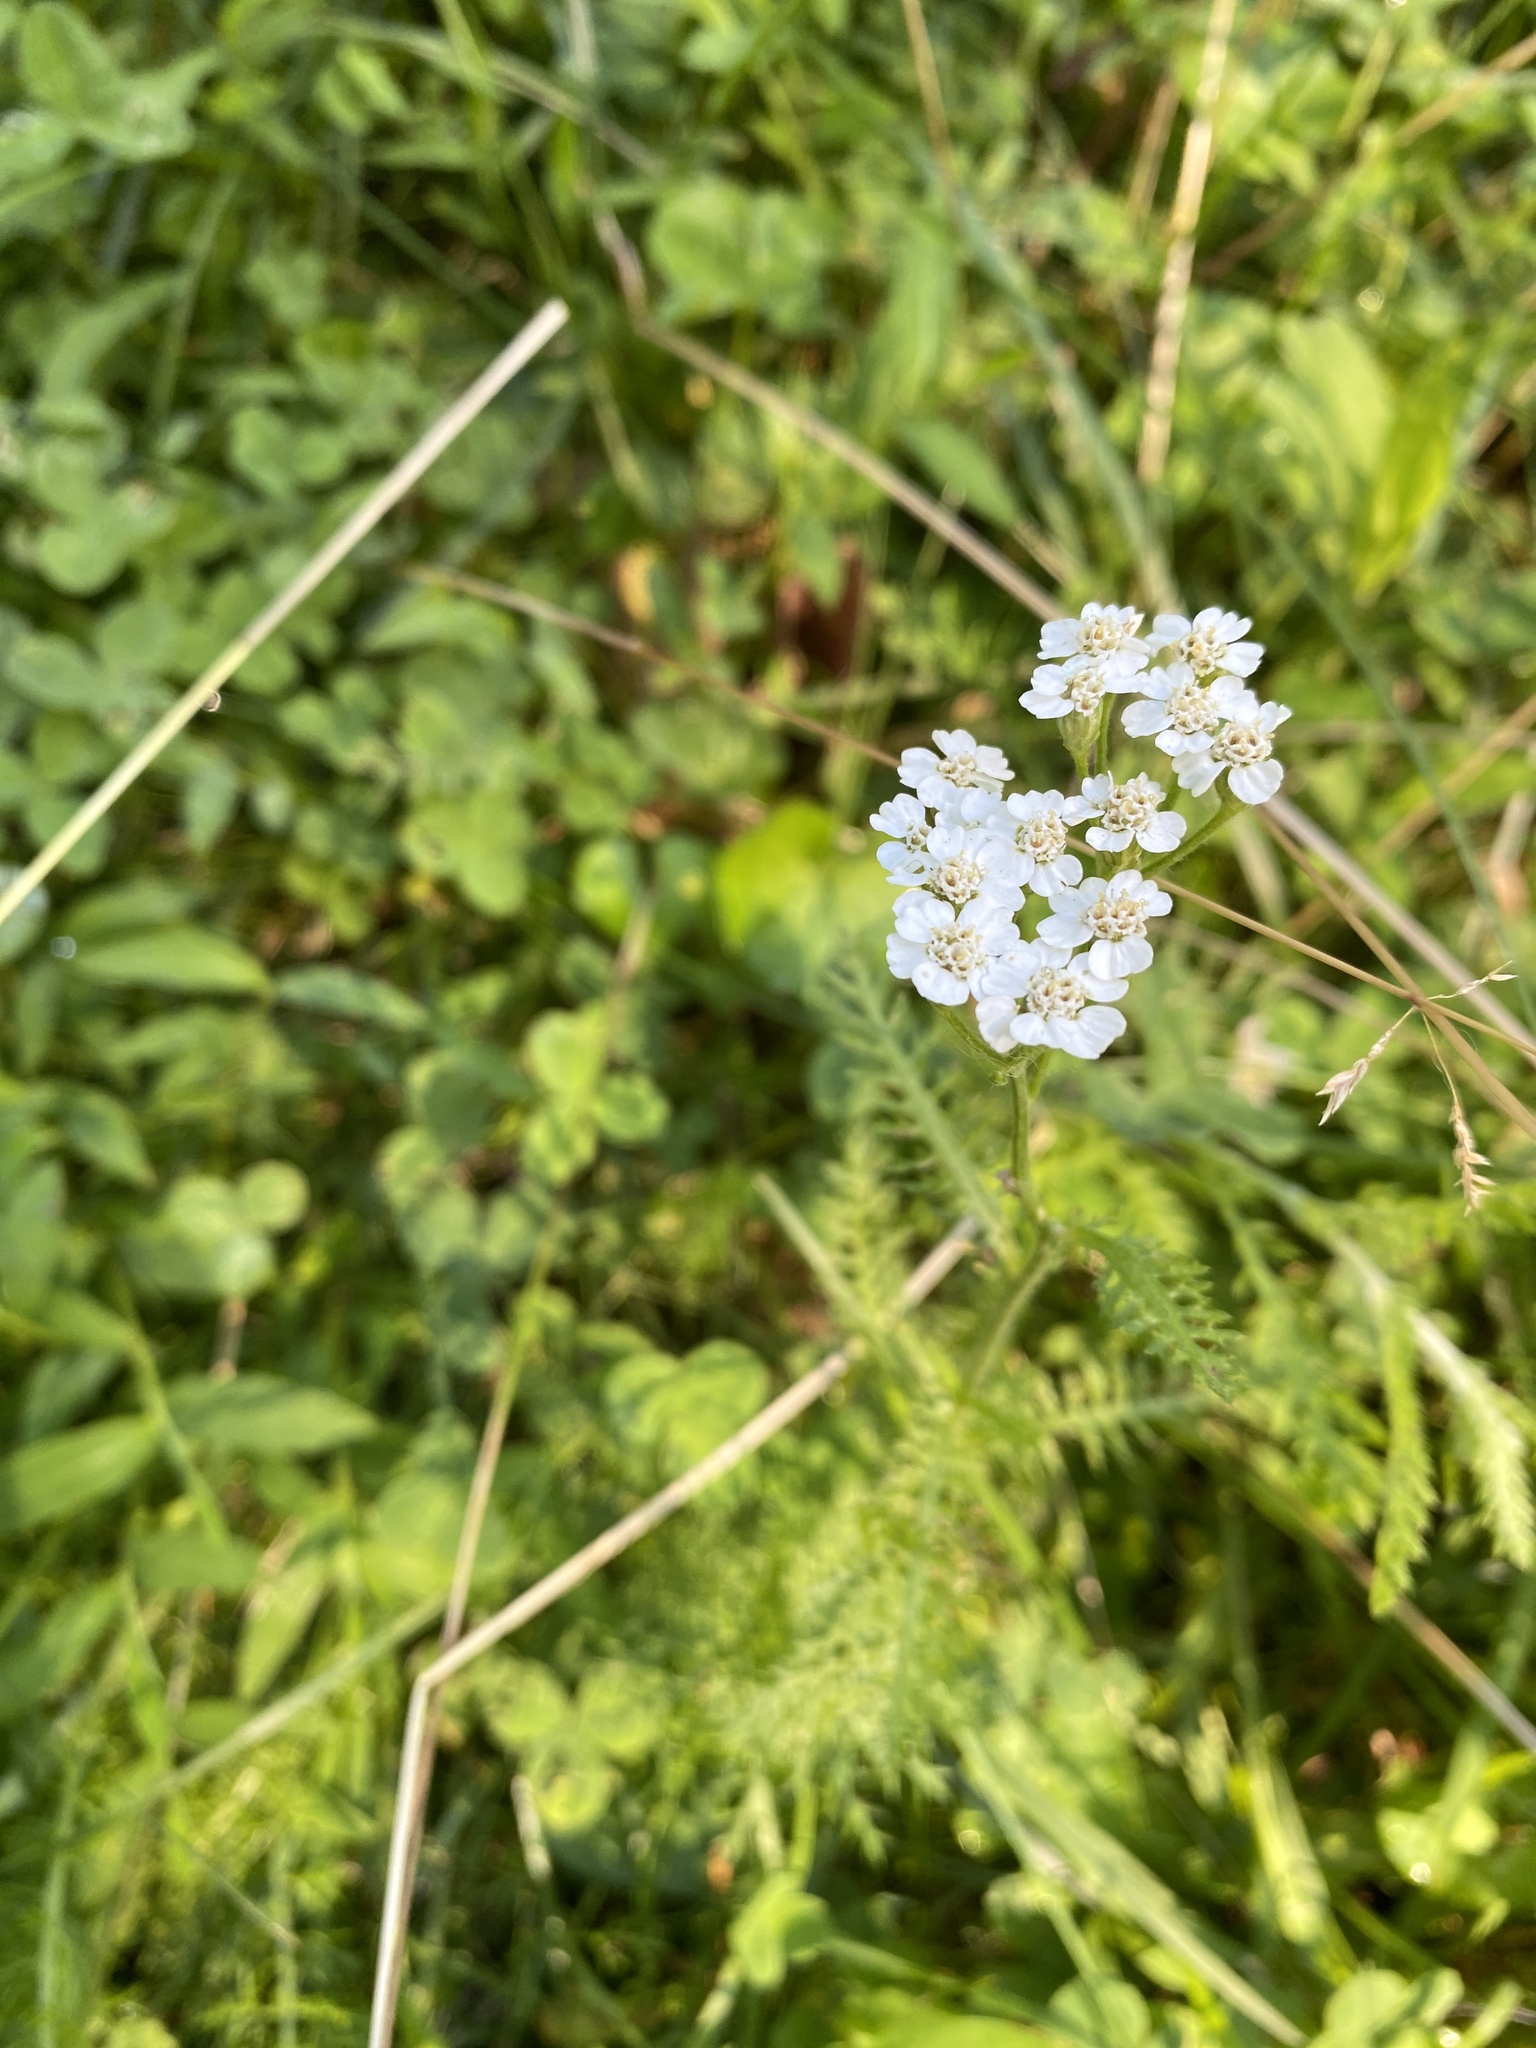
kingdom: Plantae
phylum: Tracheophyta
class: Magnoliopsida
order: Asterales
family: Asteraceae
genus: Achillea
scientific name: Achillea millefolium
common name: Yarrow
